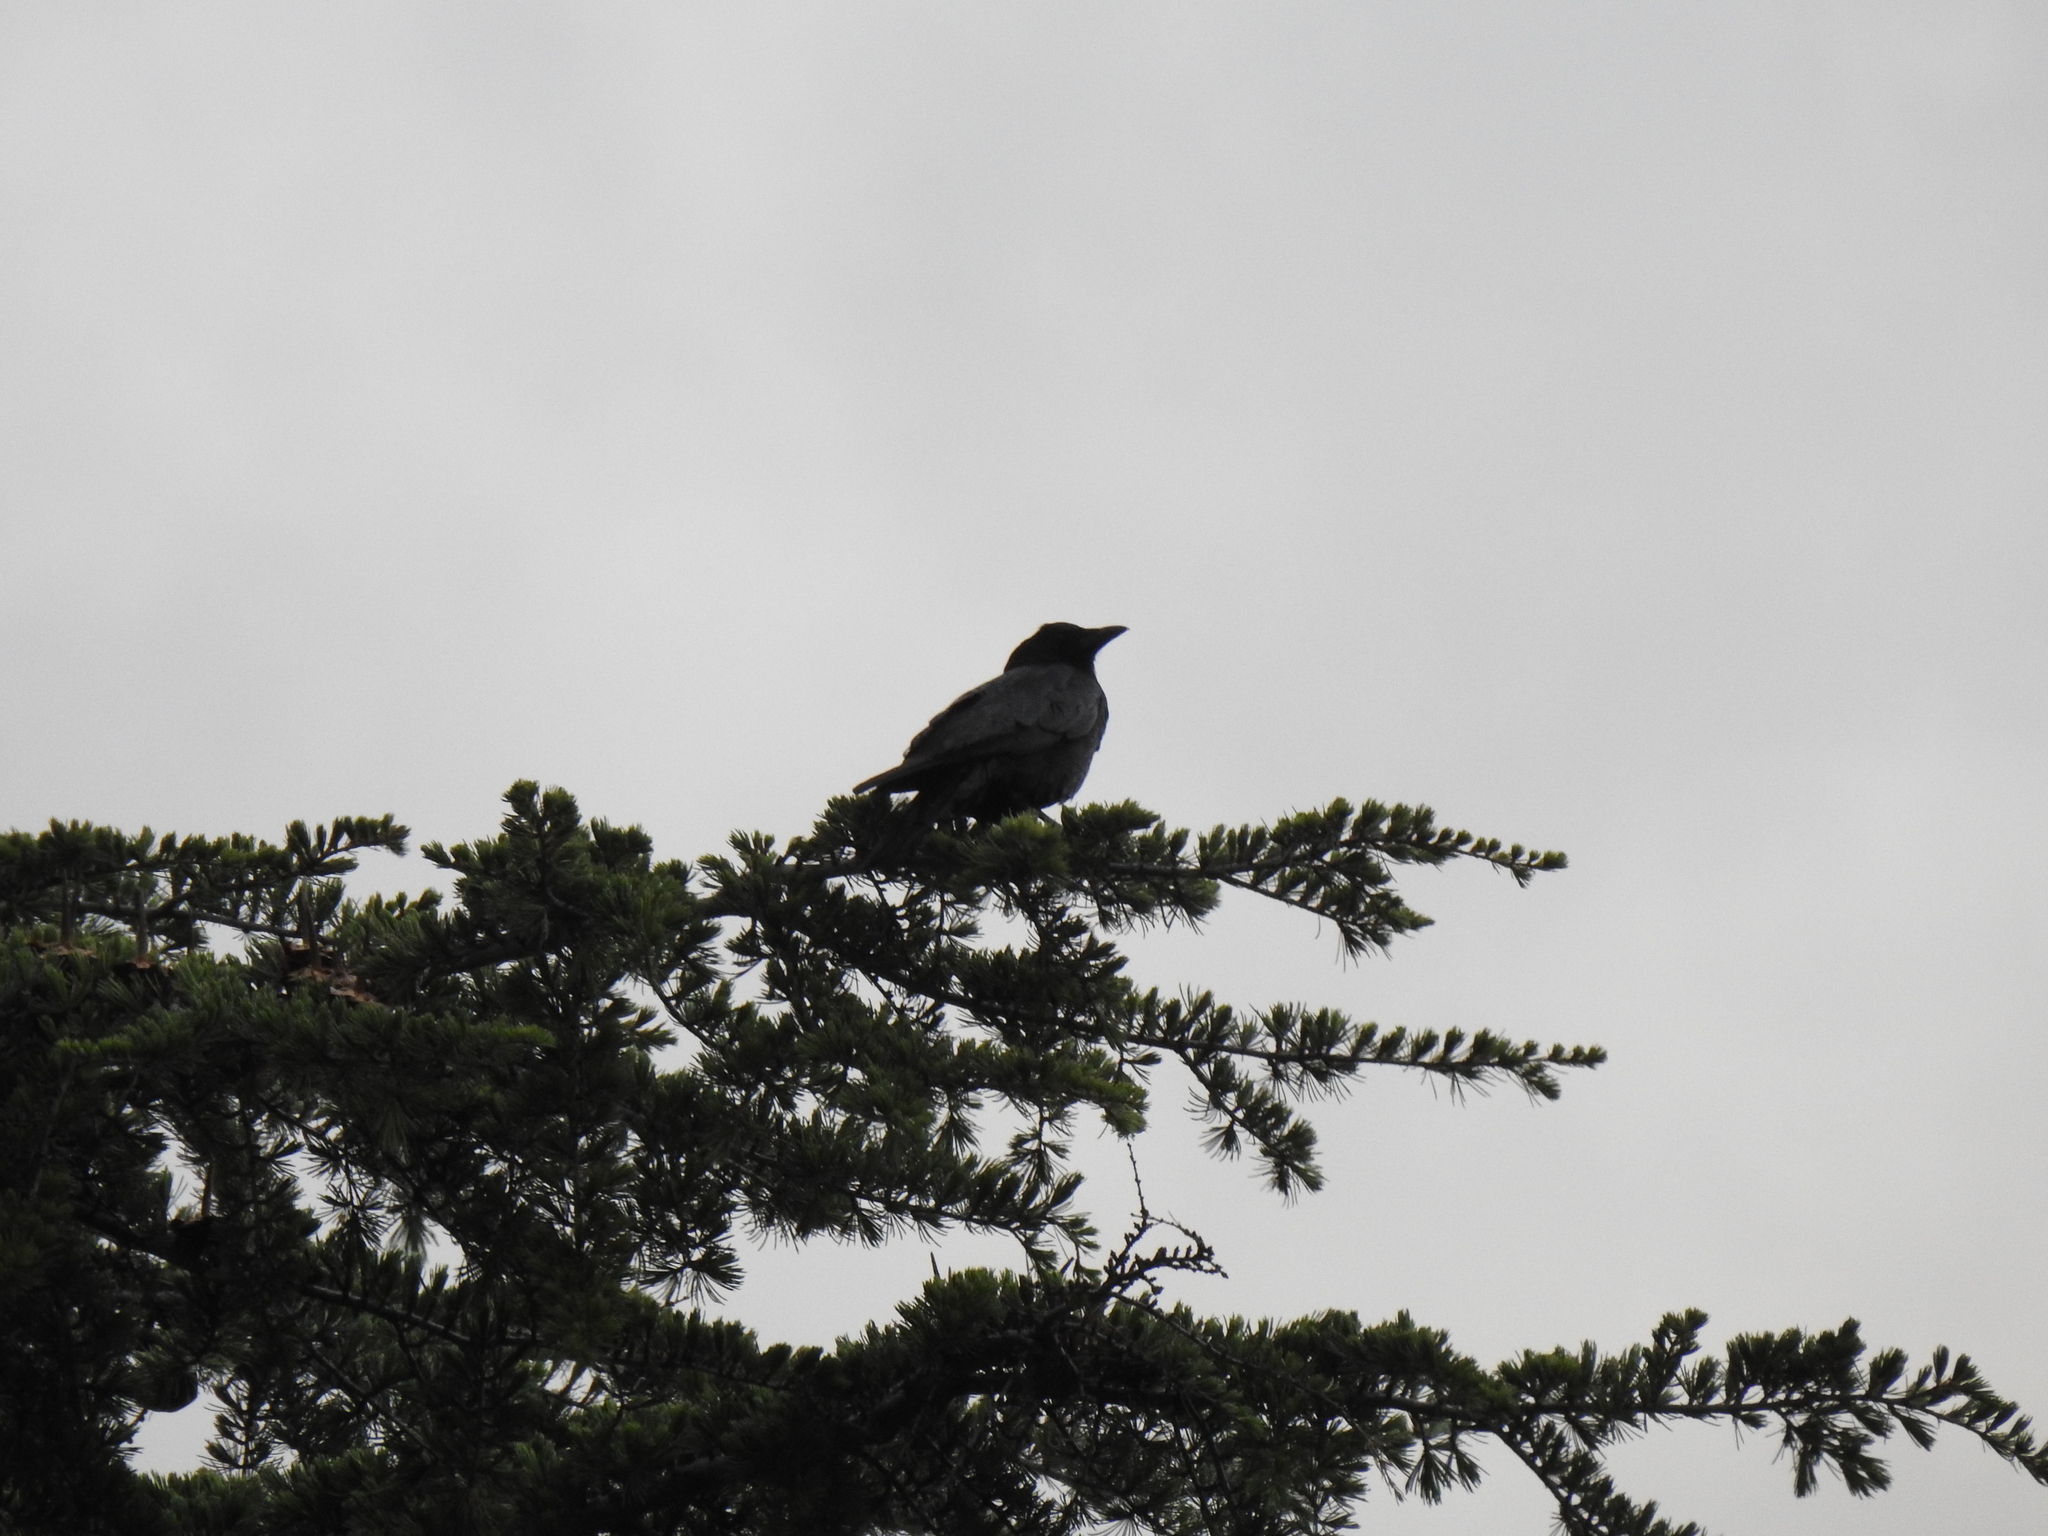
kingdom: Animalia
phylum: Chordata
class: Aves
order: Passeriformes
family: Corvidae
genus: Corvus
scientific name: Corvus brachyrhynchos
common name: American crow
